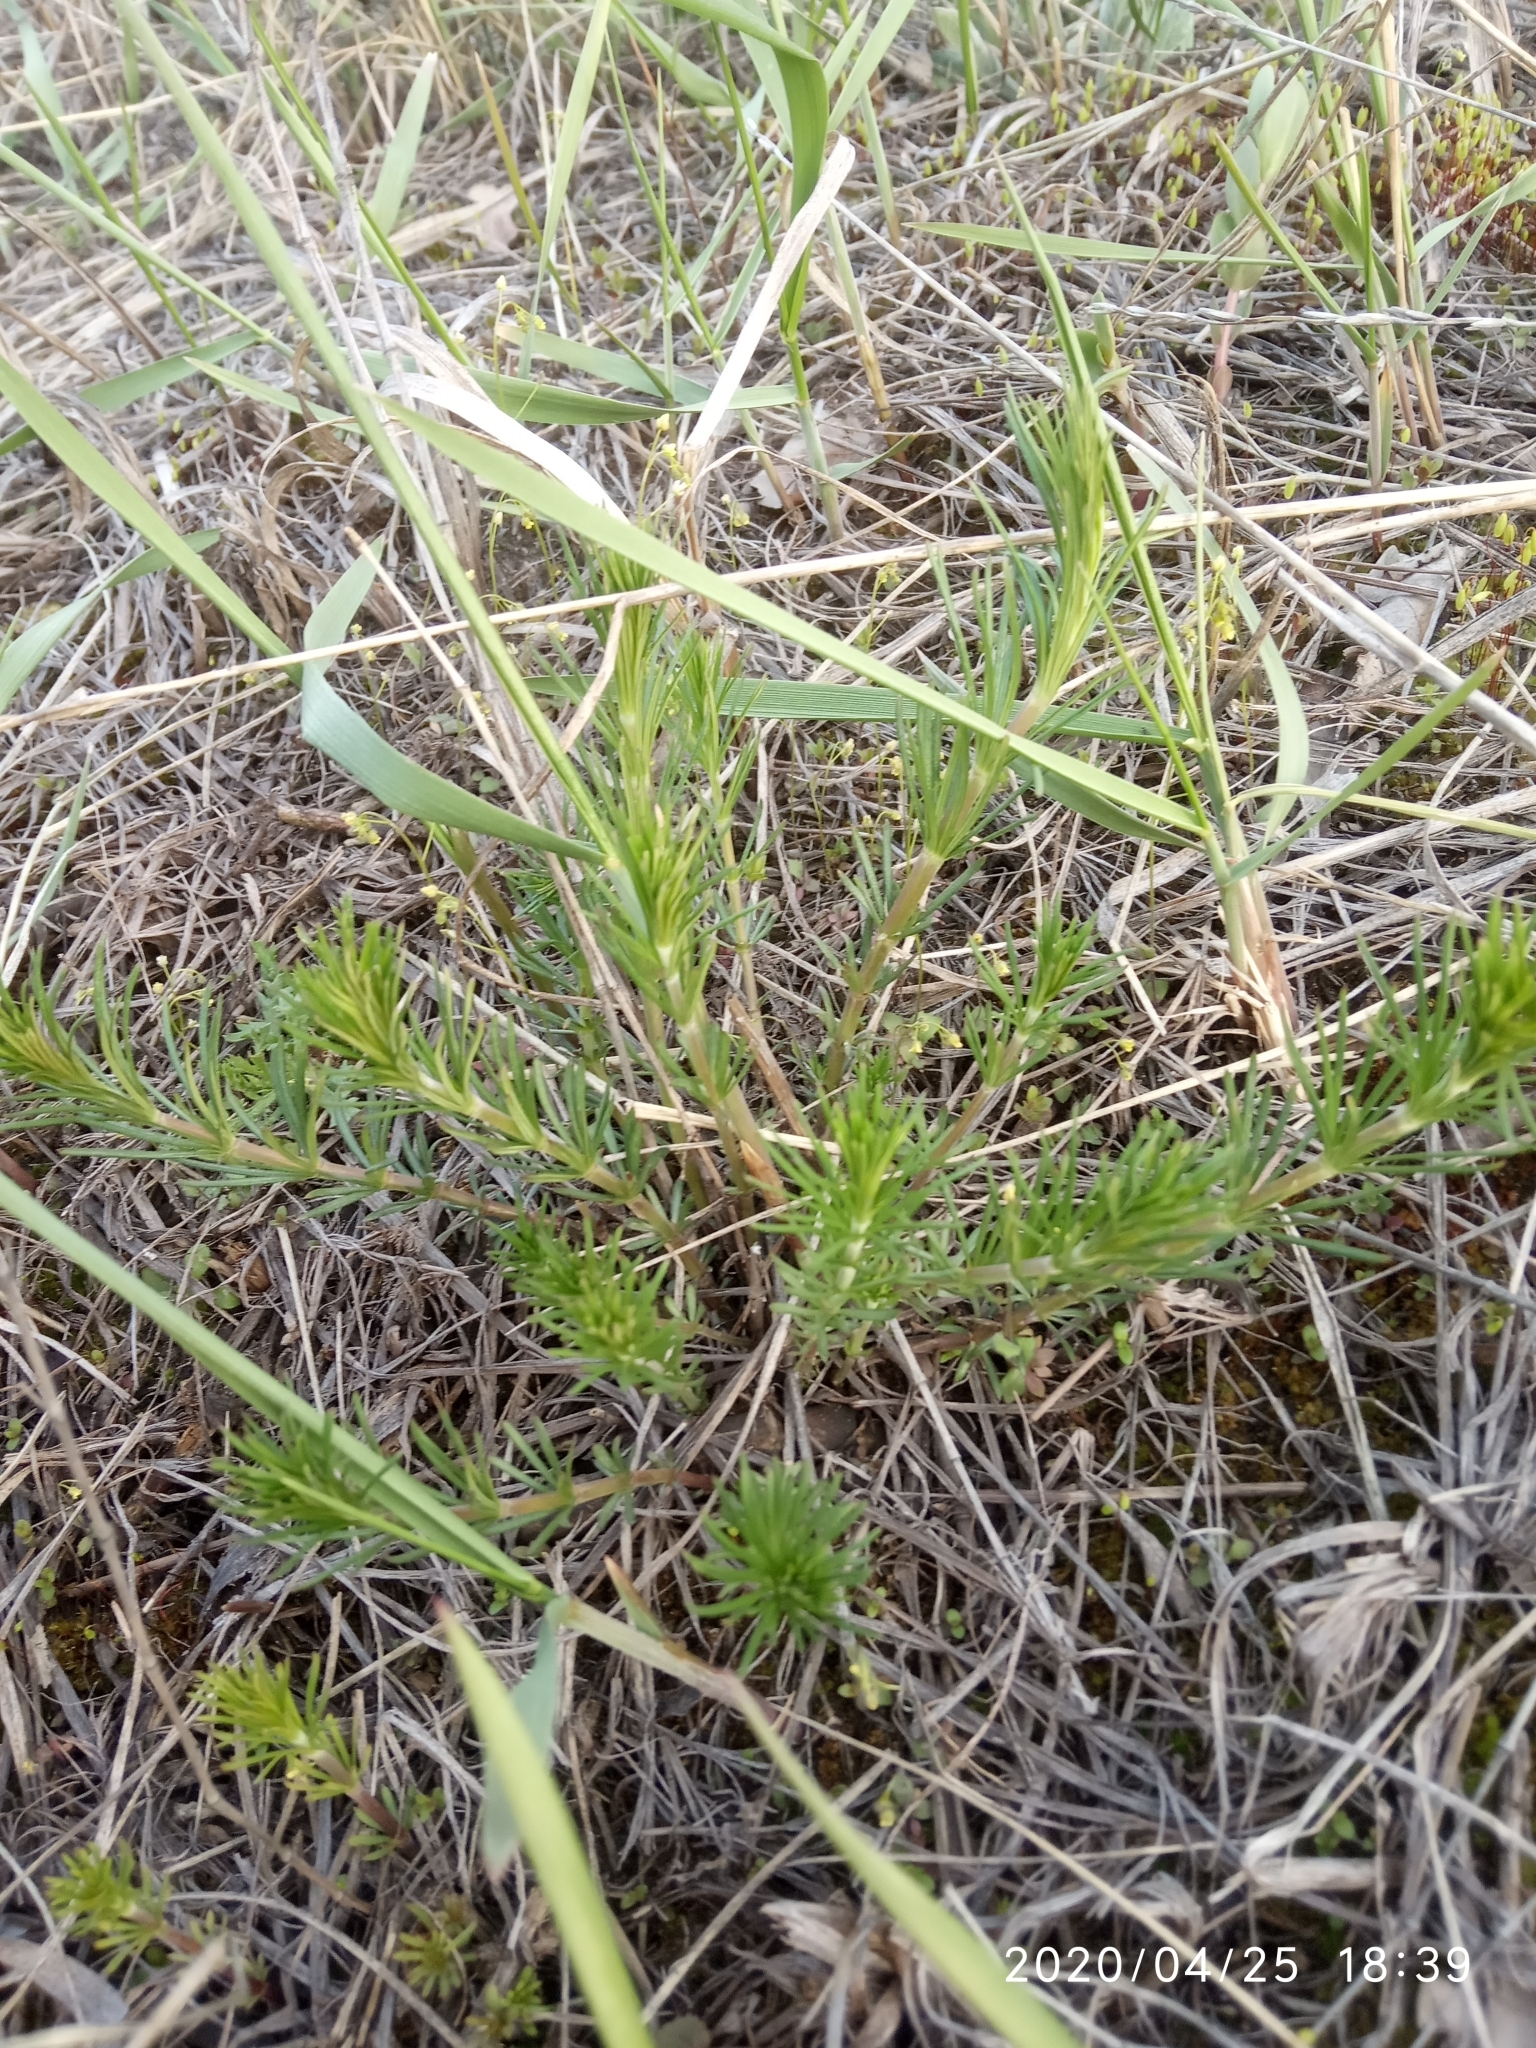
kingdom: Plantae
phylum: Tracheophyta
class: Magnoliopsida
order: Gentianales
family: Rubiaceae
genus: Galium
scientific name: Galium verum
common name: Lady's bedstraw
